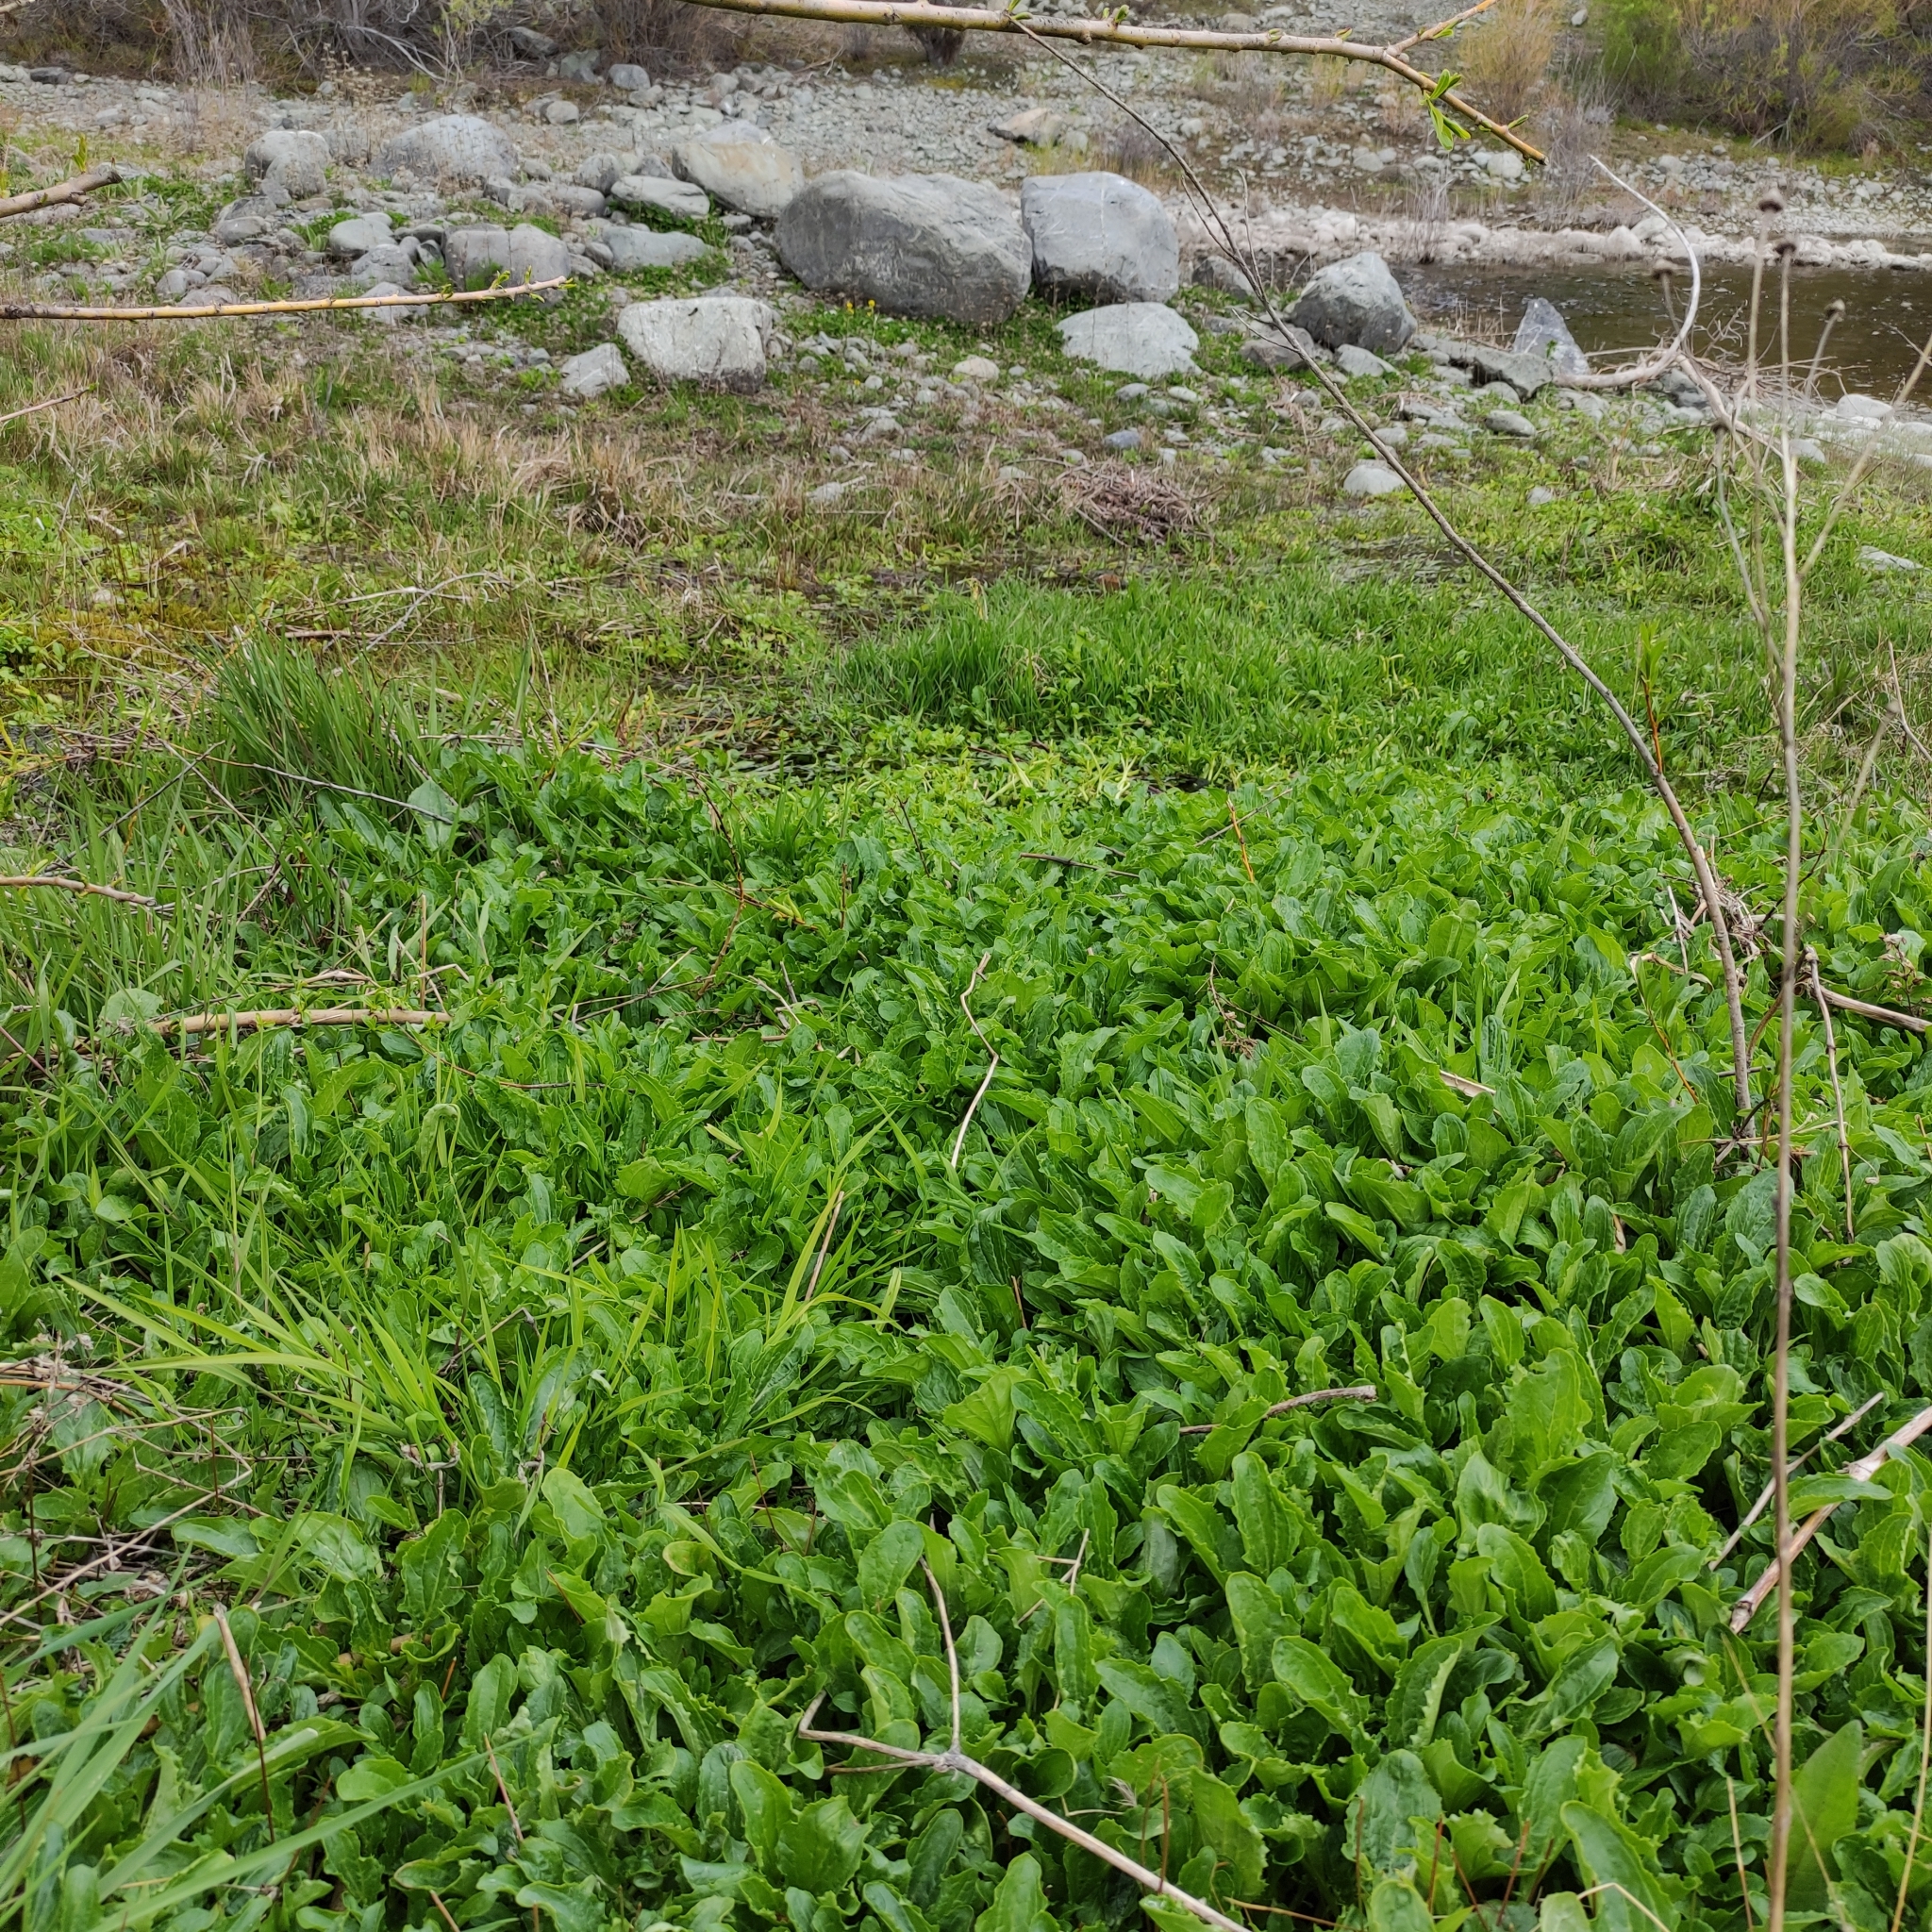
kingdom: Plantae
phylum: Tracheophyta
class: Magnoliopsida
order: Lamiales
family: Phrymaceae
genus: Erythranthe
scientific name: Erythranthe guttata
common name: Monkeyflower
